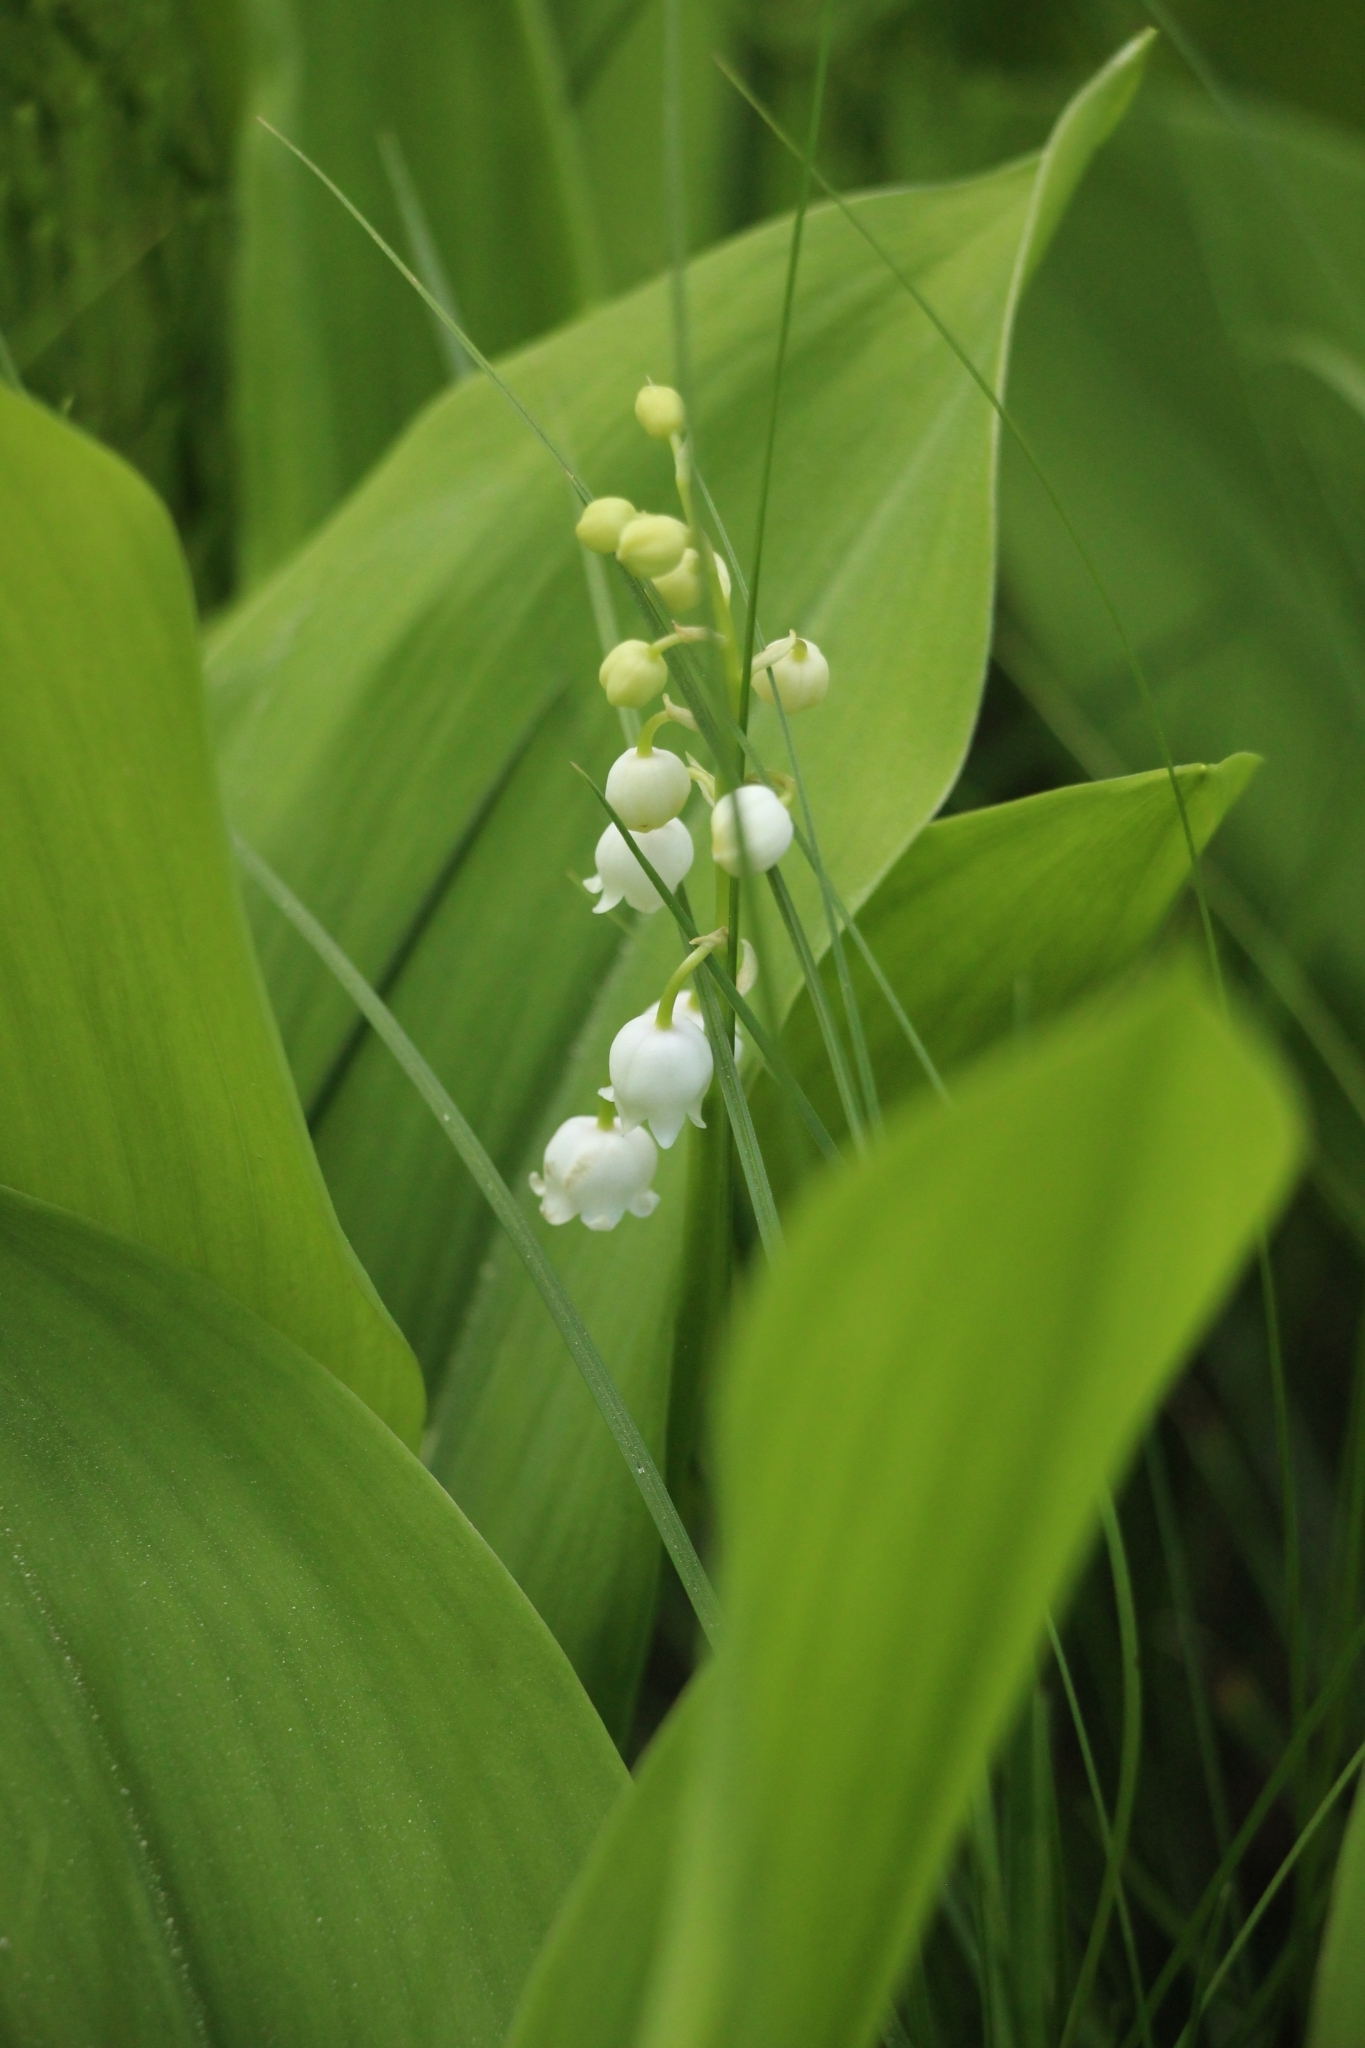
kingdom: Plantae
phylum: Tracheophyta
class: Liliopsida
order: Asparagales
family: Asparagaceae
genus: Convallaria
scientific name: Convallaria majalis
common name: Lily-of-the-valley
